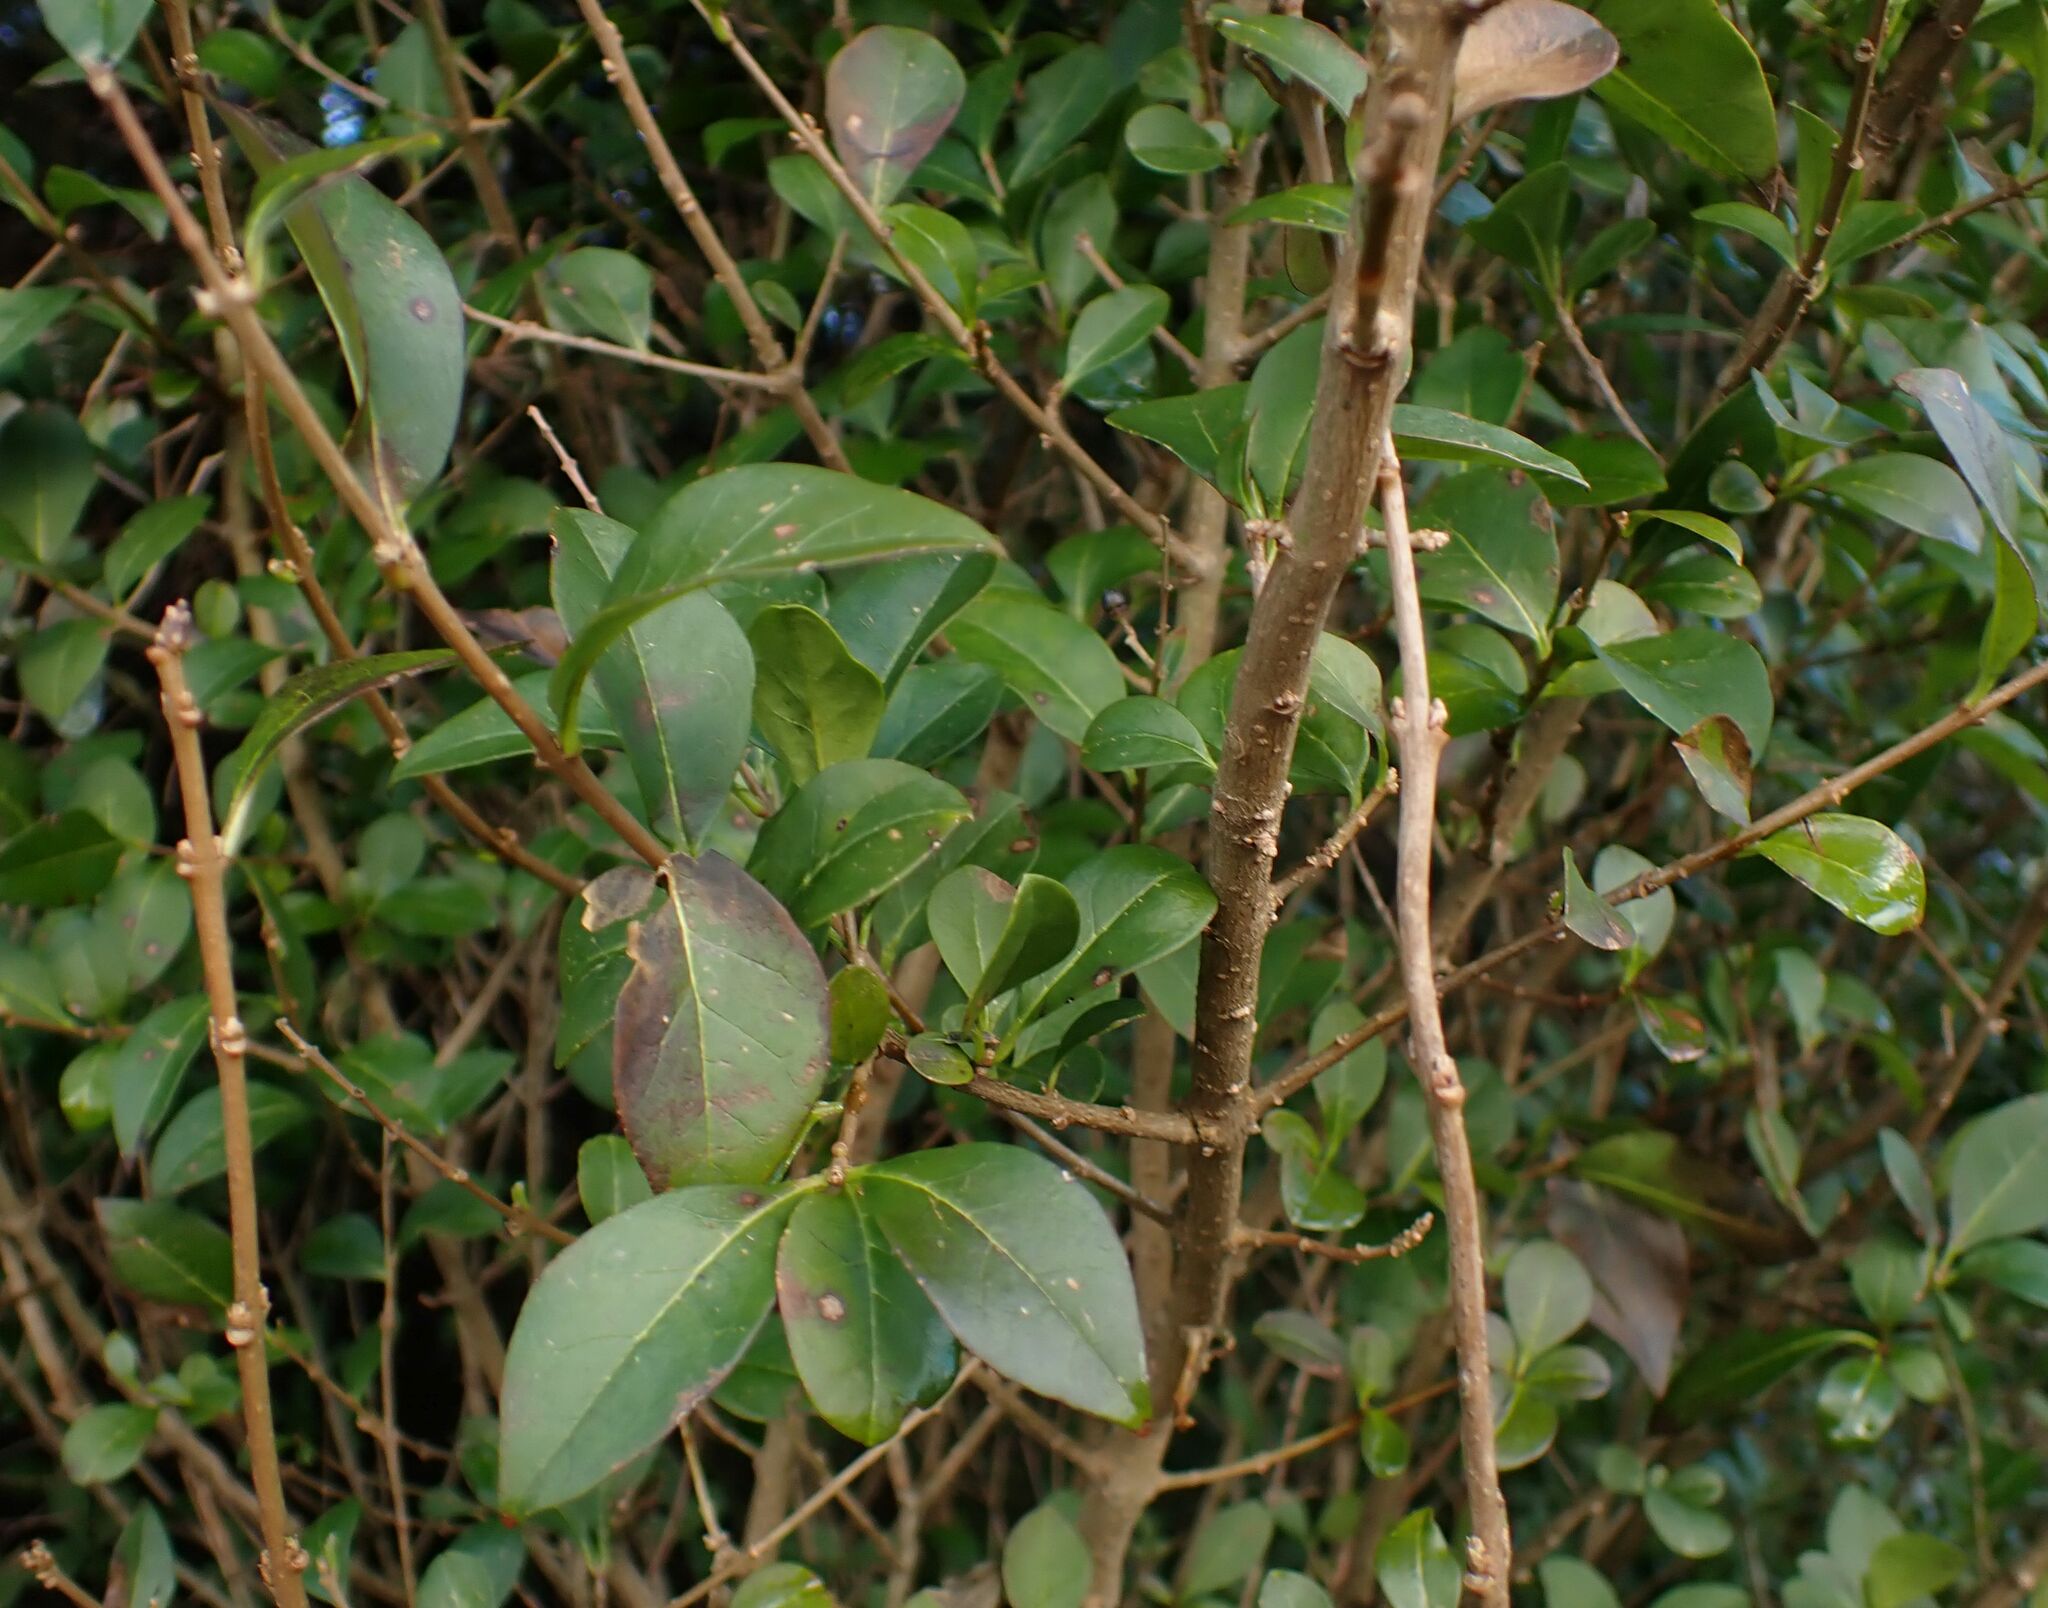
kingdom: Plantae
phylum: Tracheophyta
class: Magnoliopsida
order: Lamiales
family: Oleaceae
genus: Ligustrum
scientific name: Ligustrum ovalifolium
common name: California privet
